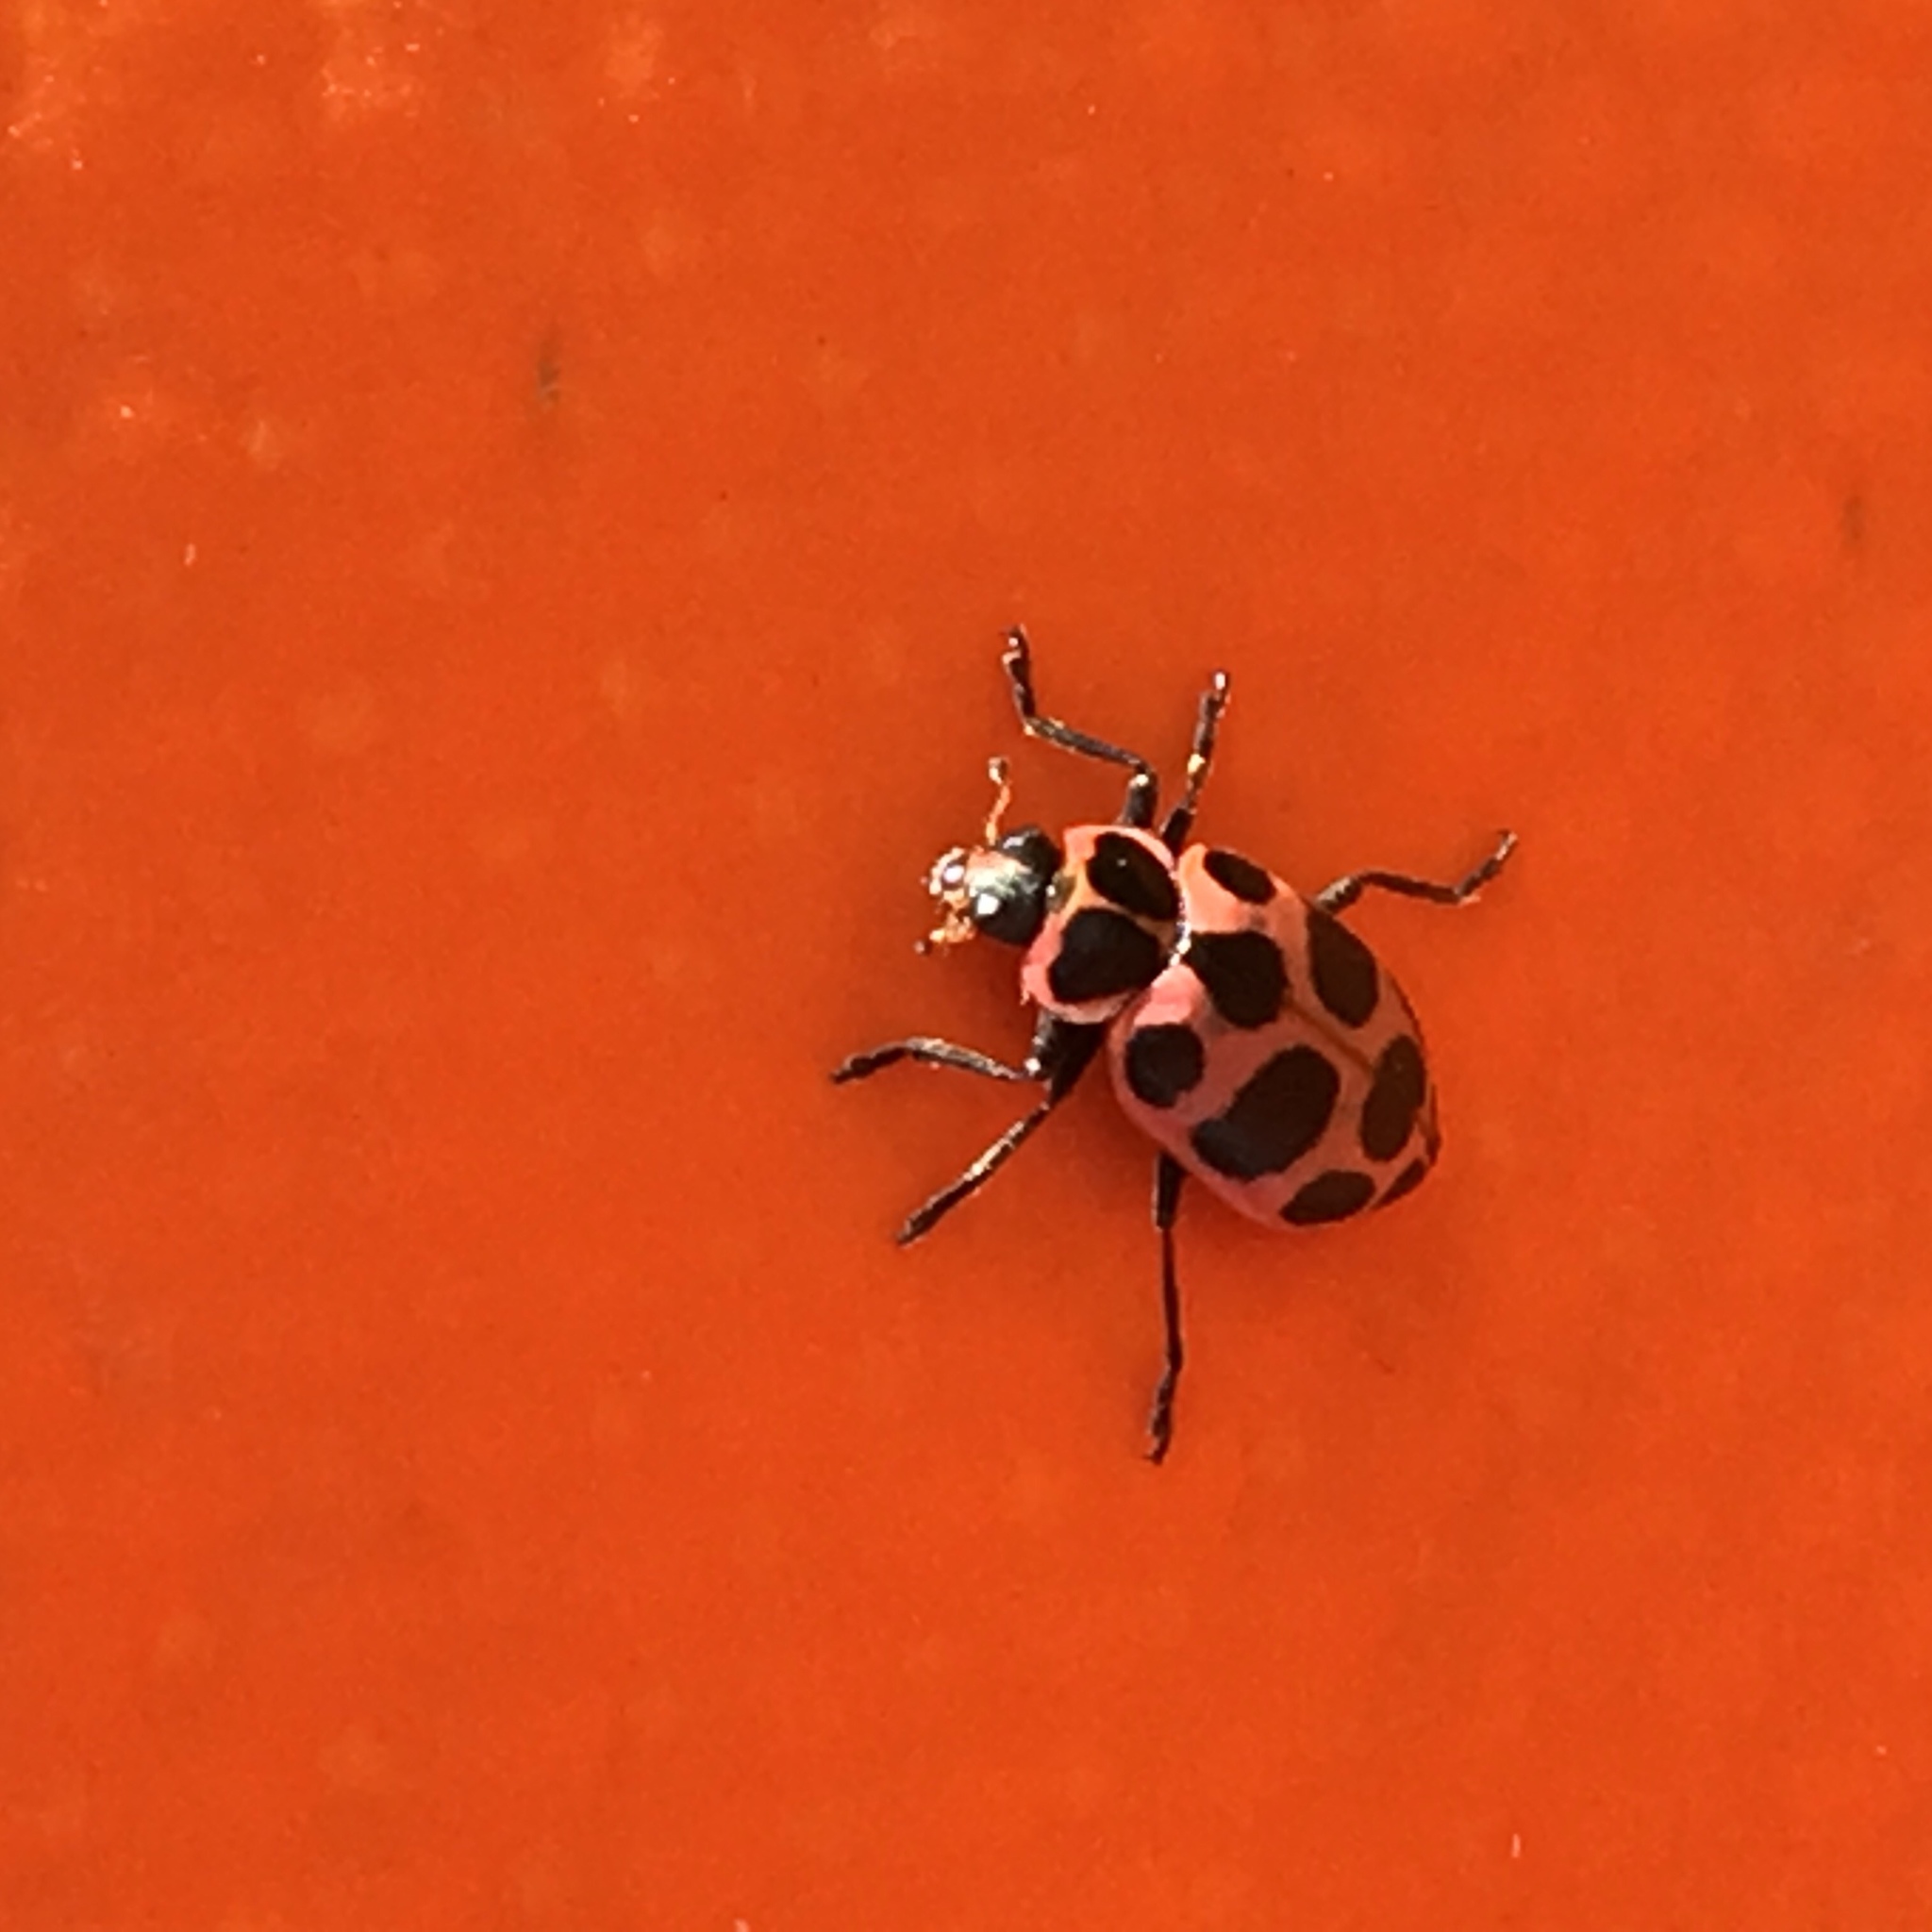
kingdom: Animalia
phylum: Arthropoda
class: Insecta
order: Coleoptera
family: Coccinellidae
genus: Coleomegilla
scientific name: Coleomegilla maculata
